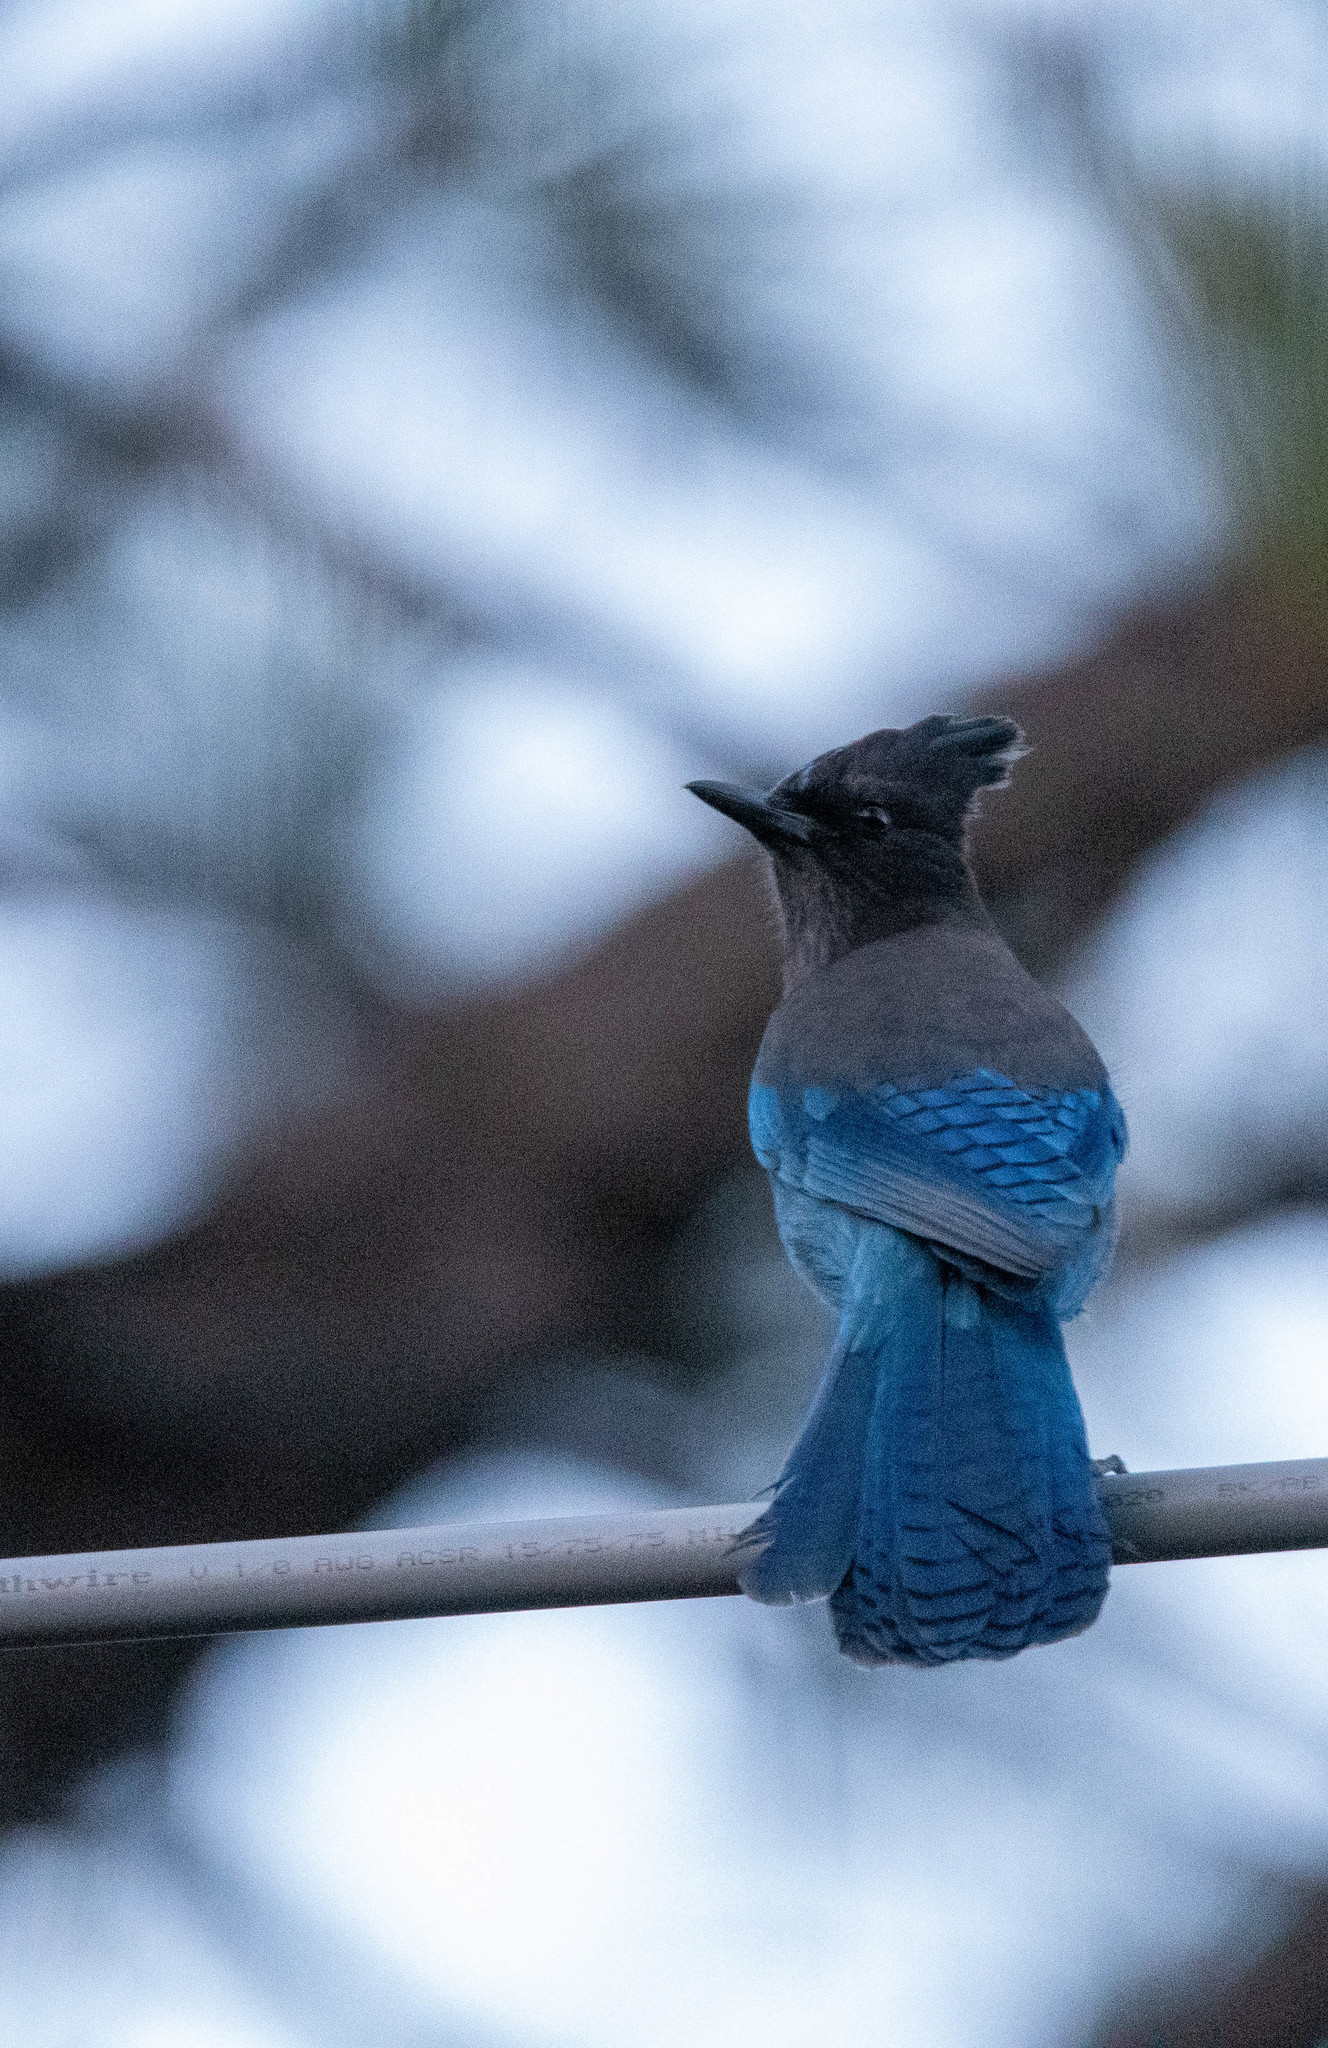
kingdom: Animalia
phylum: Chordata
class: Aves
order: Passeriformes
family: Corvidae
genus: Cyanocitta
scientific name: Cyanocitta stelleri
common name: Steller's jay
